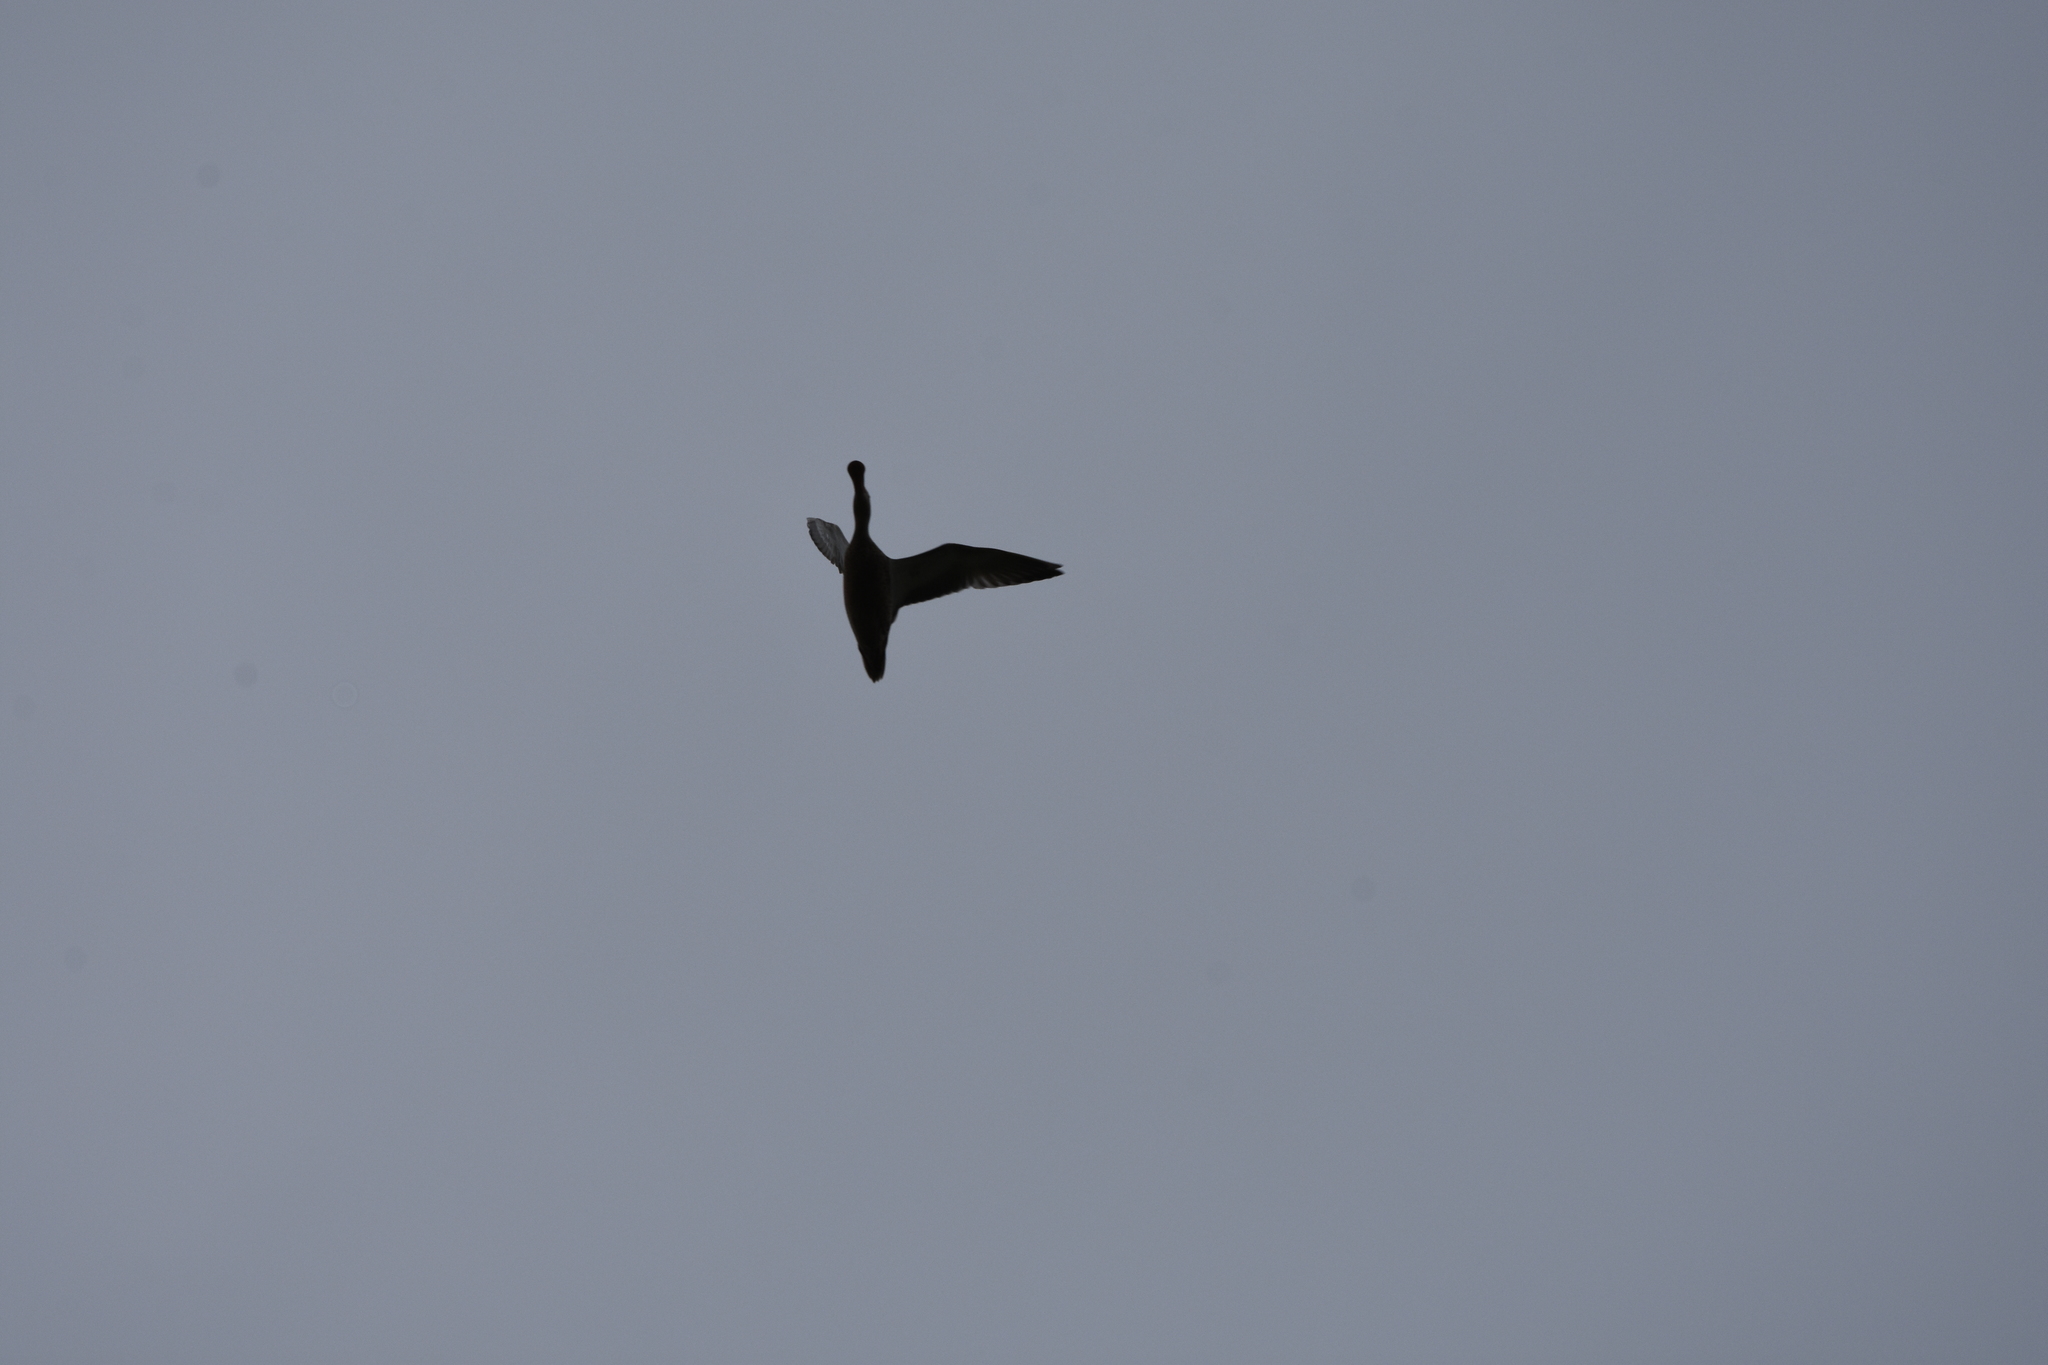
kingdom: Animalia
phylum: Chordata
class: Aves
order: Anseriformes
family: Anatidae
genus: Spatula
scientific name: Spatula clypeata
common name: Northern shoveler
